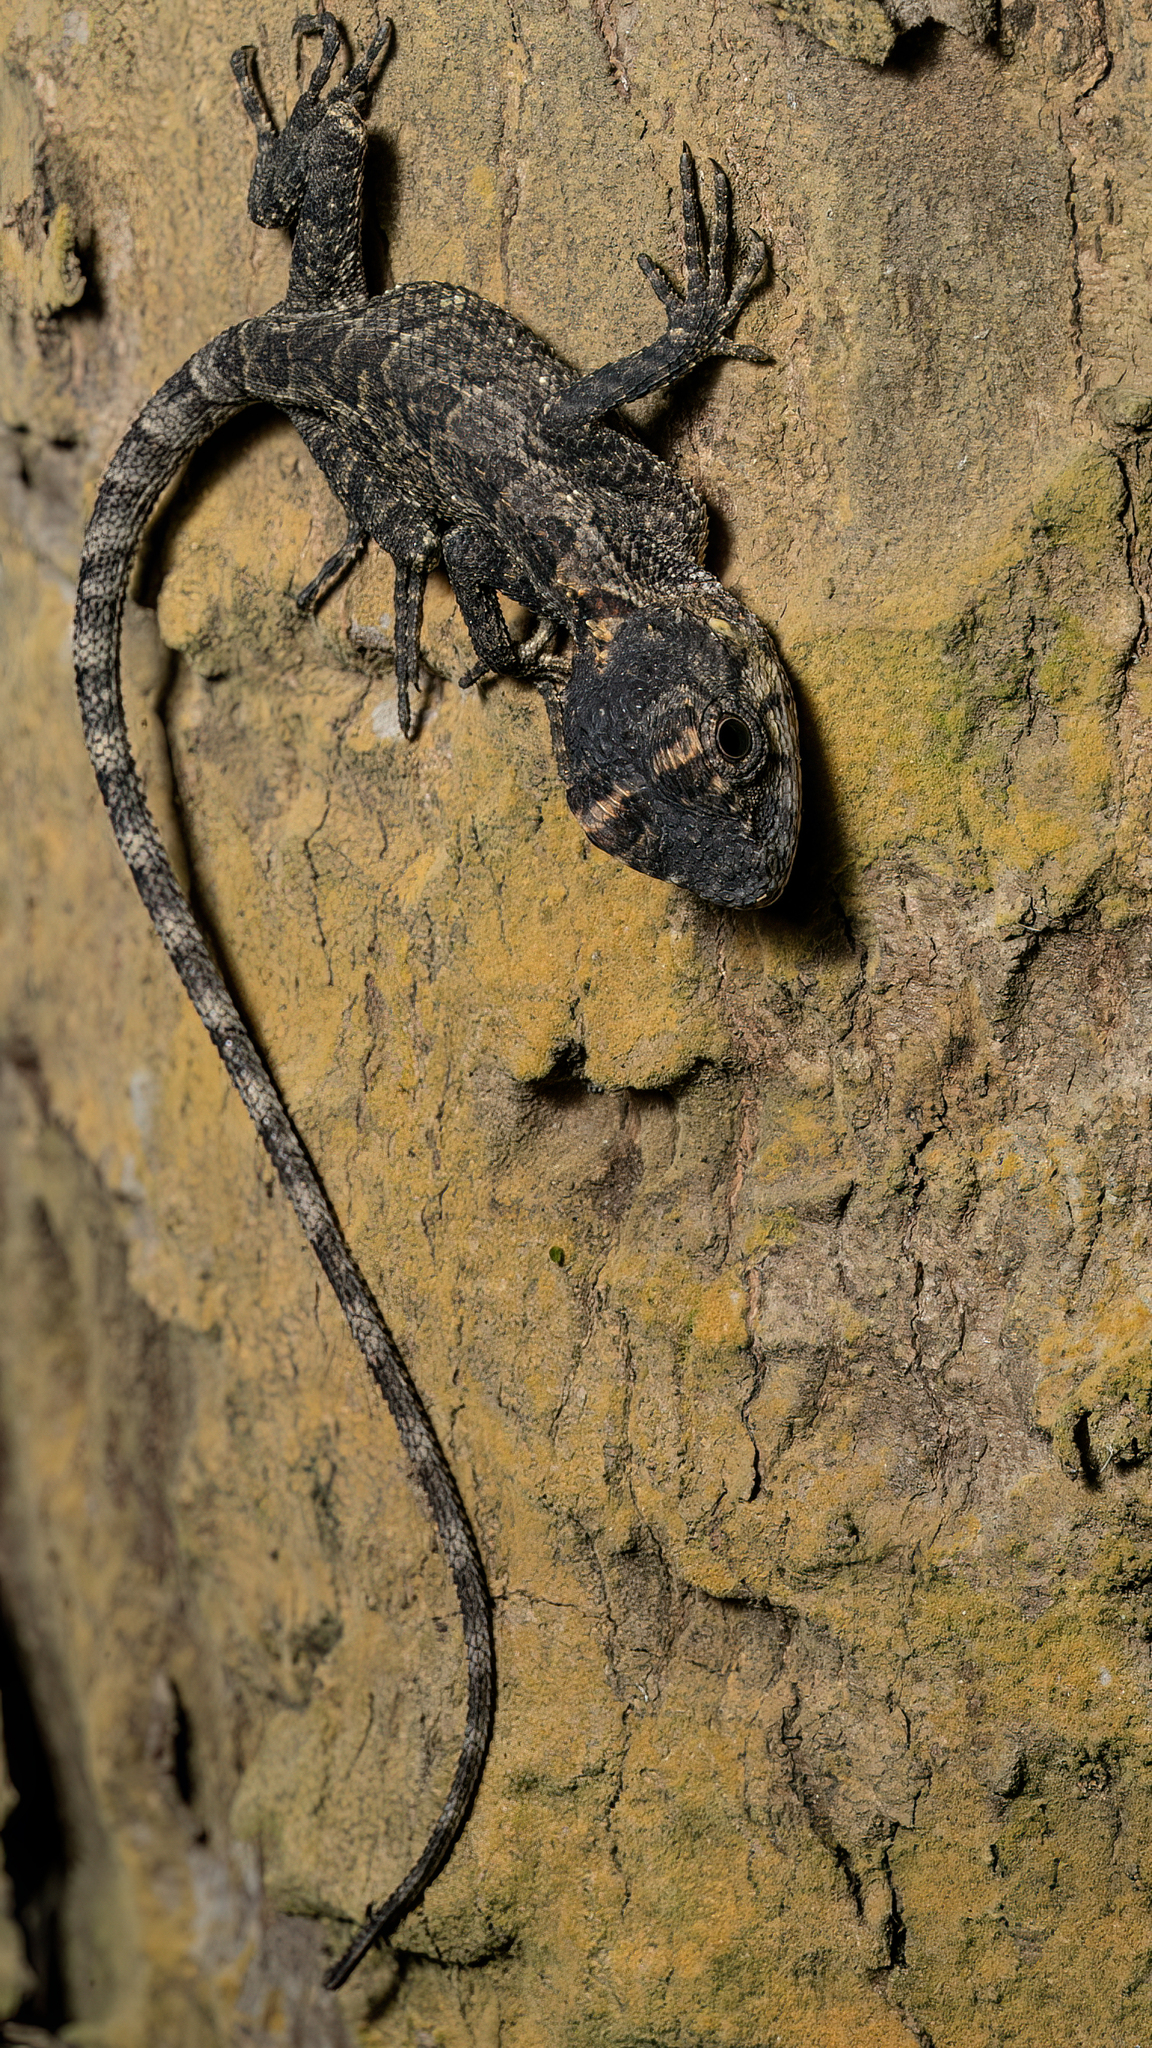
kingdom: Animalia
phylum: Chordata
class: Squamata
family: Agamidae
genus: Calotes
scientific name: Calotes bachae
